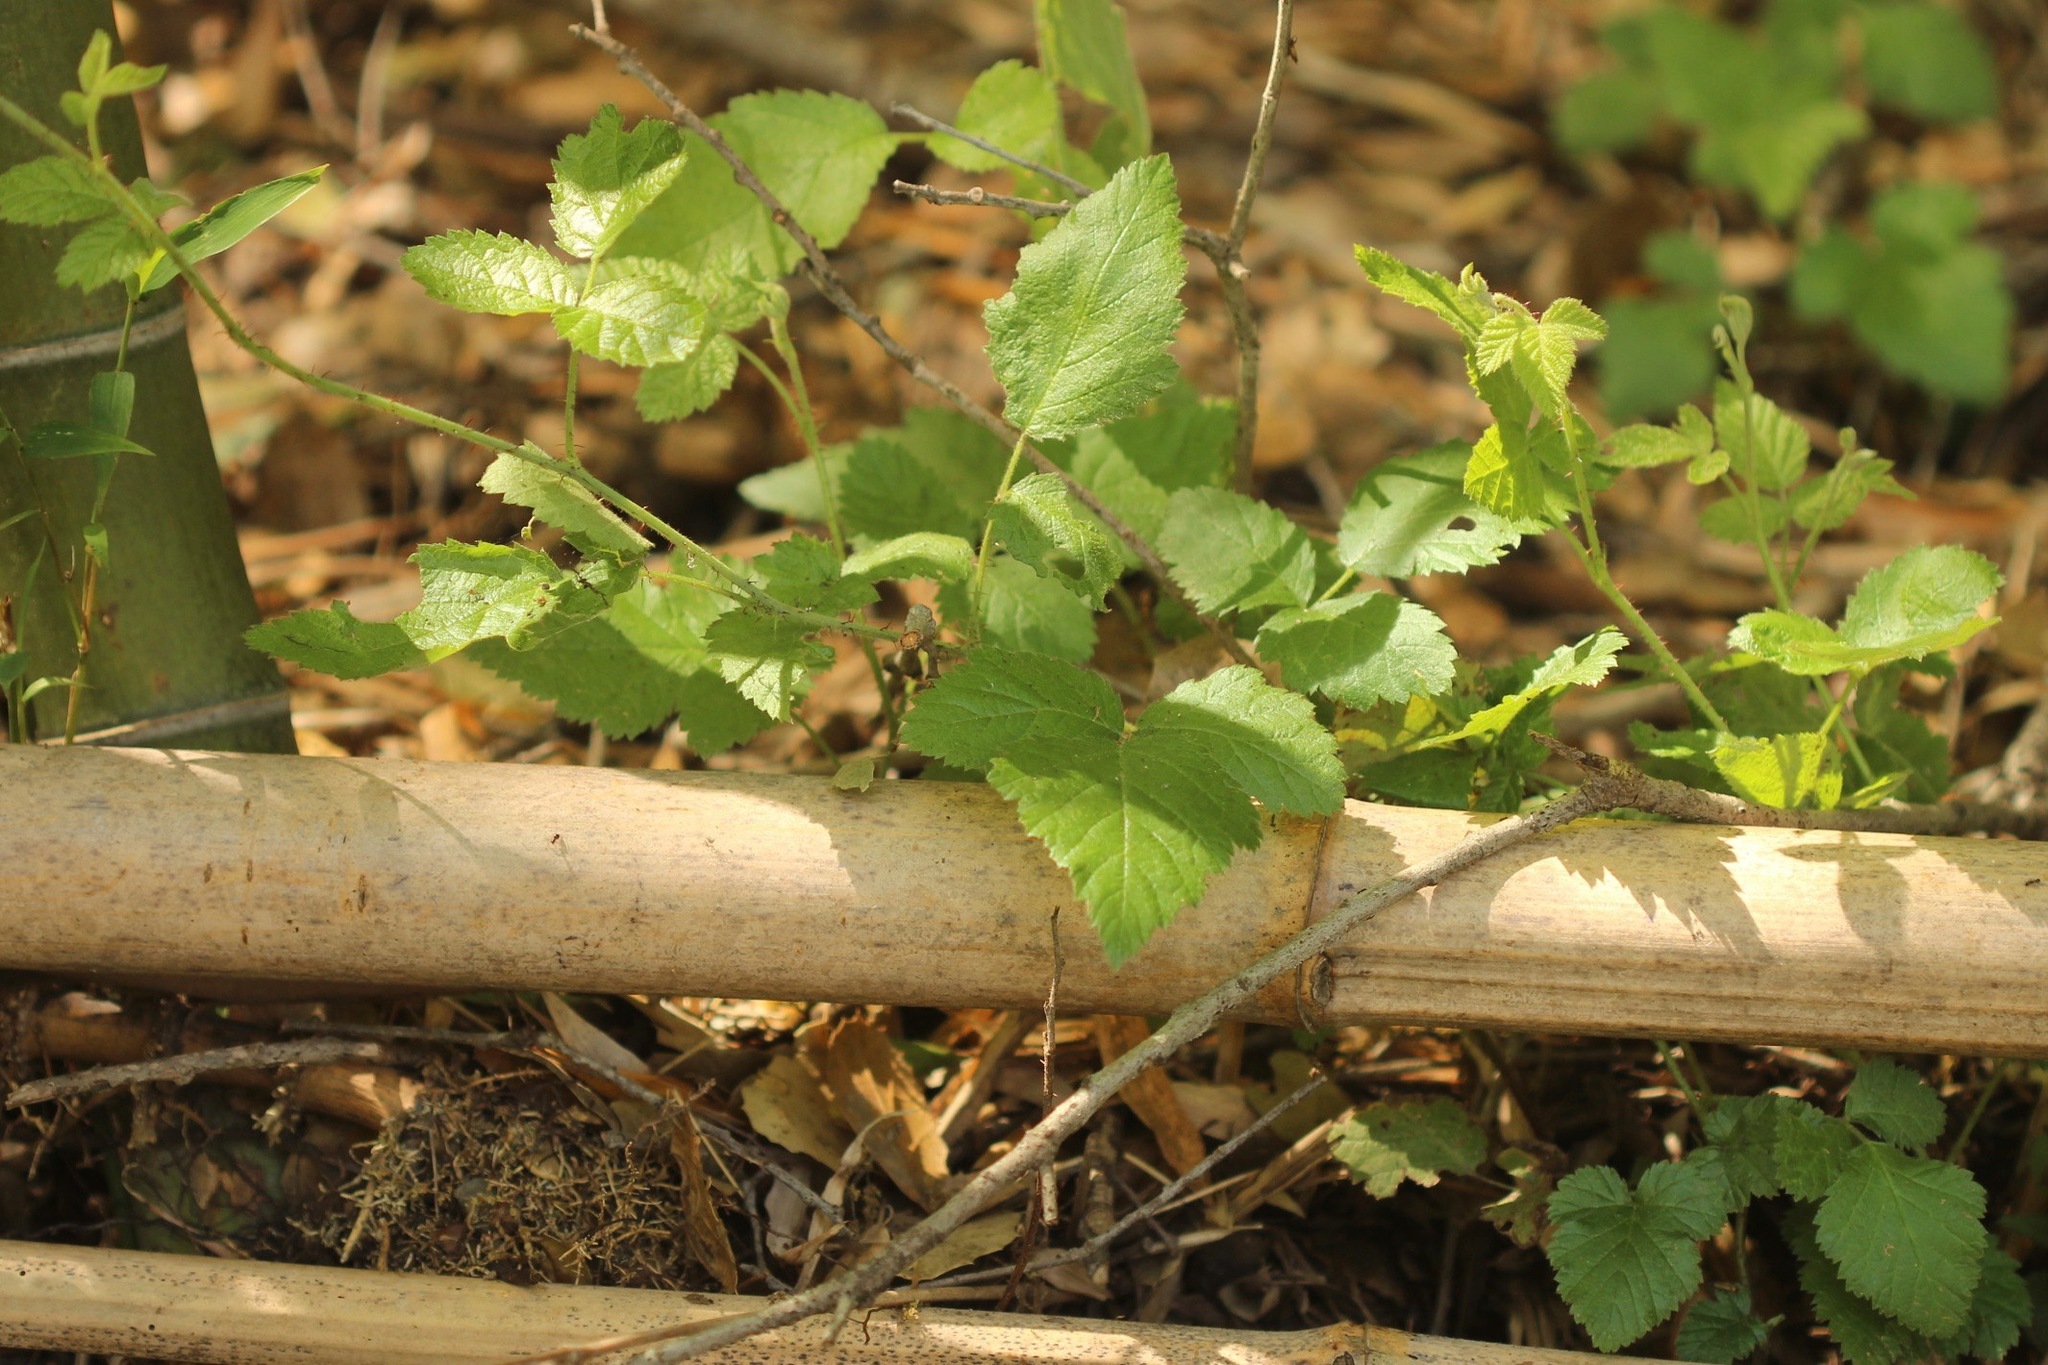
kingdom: Plantae
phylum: Tracheophyta
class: Magnoliopsida
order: Rosales
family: Rosaceae
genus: Rubus
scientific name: Rubus ursinus
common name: Pacific blackberry
